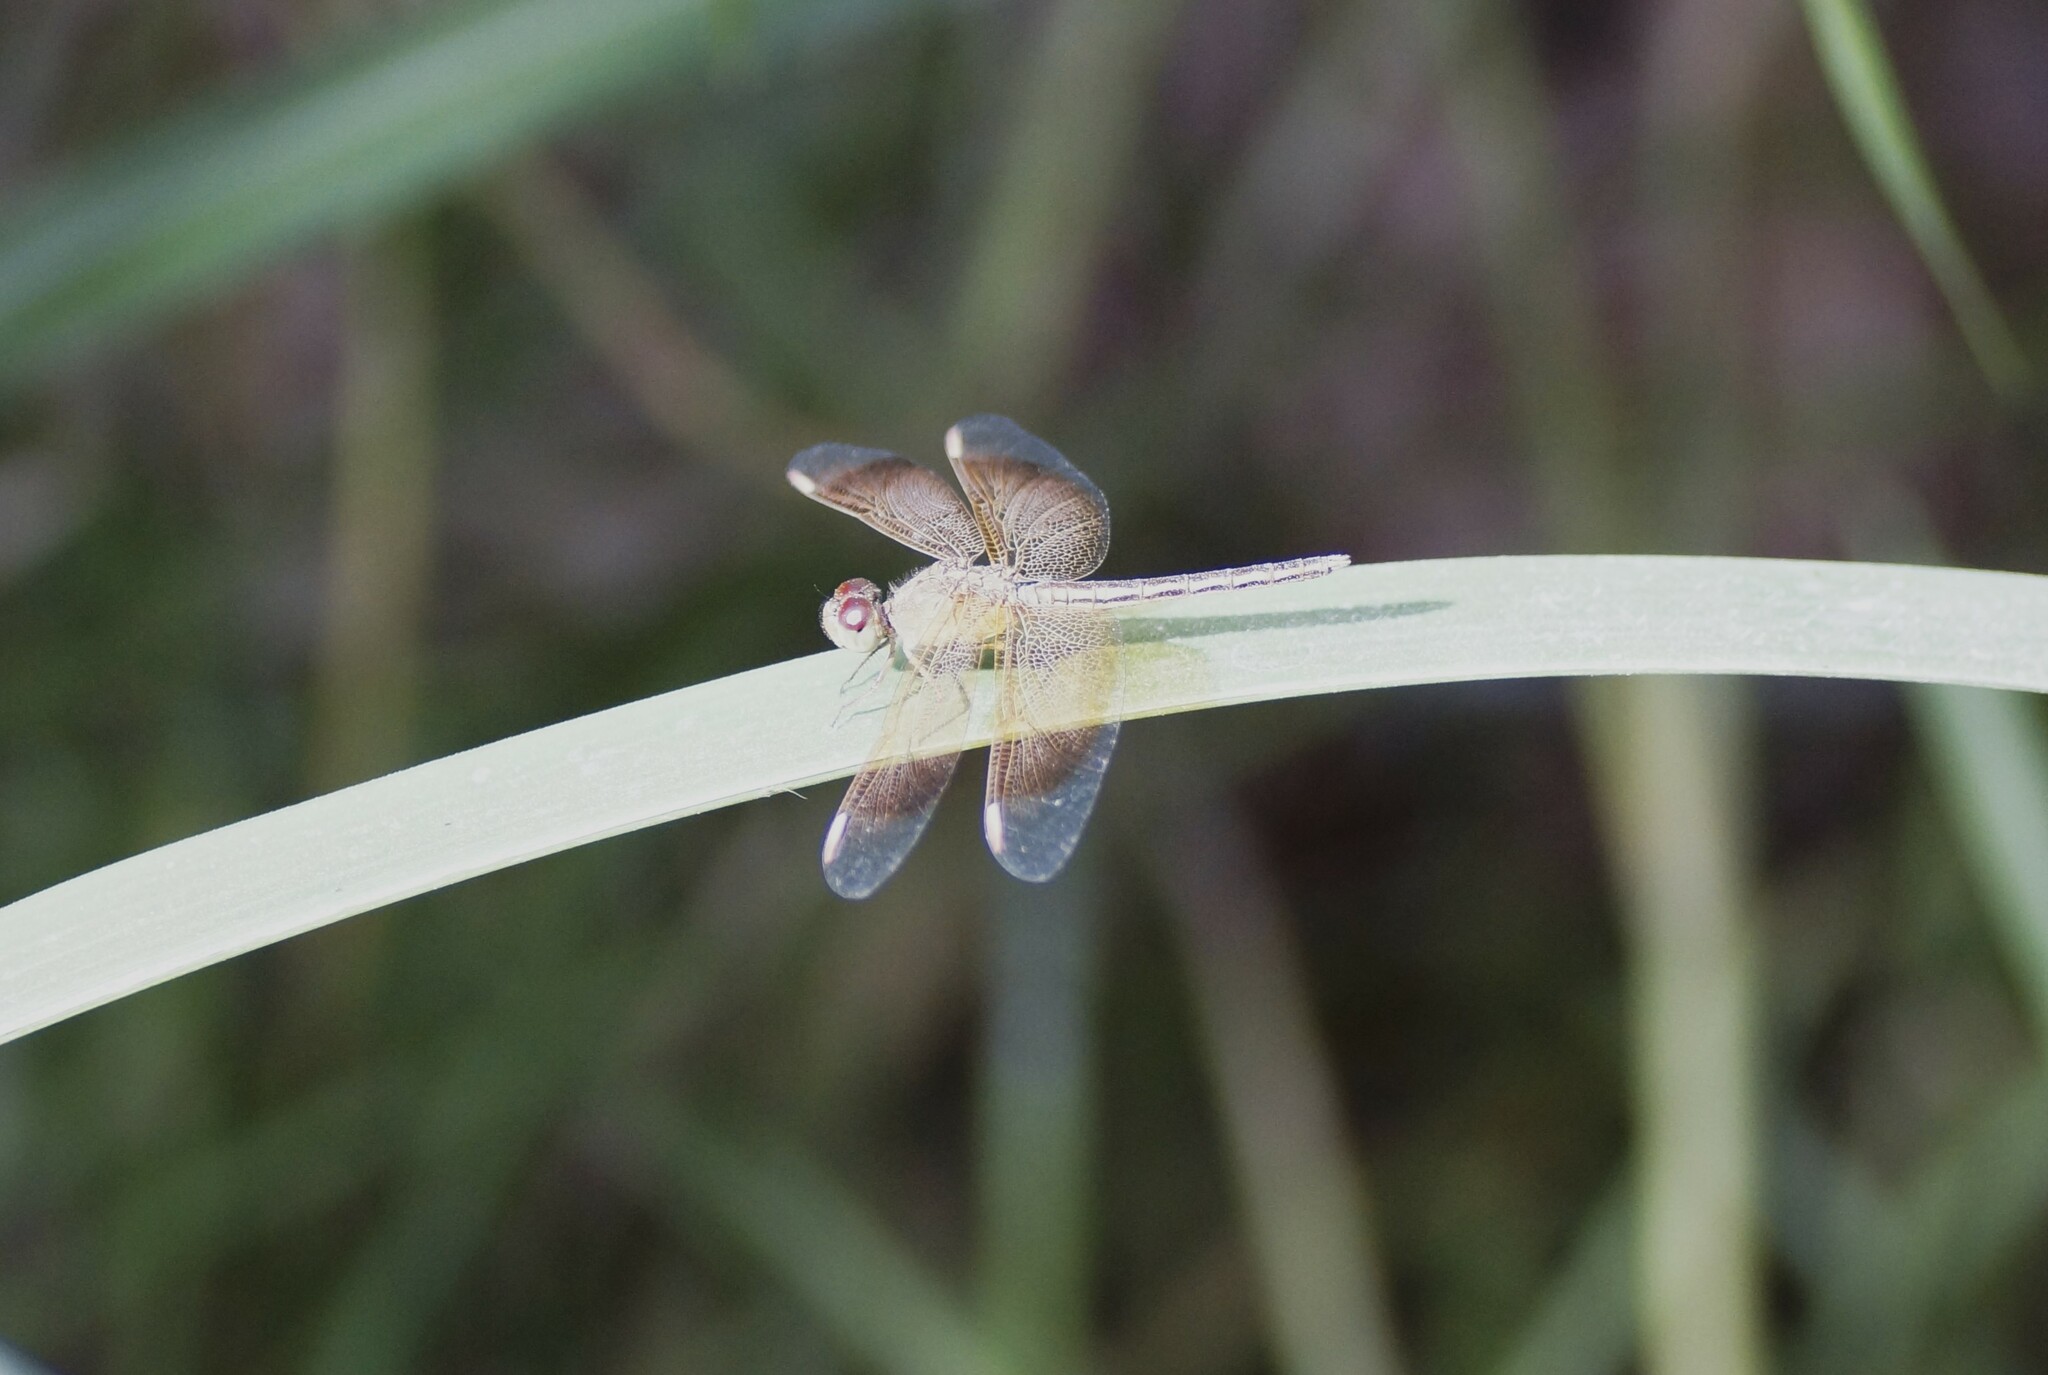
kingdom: Animalia
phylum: Arthropoda
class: Insecta
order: Odonata
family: Libellulidae
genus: Neurothemis
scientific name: Neurothemis stigmatizans
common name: Painted grasshawk
